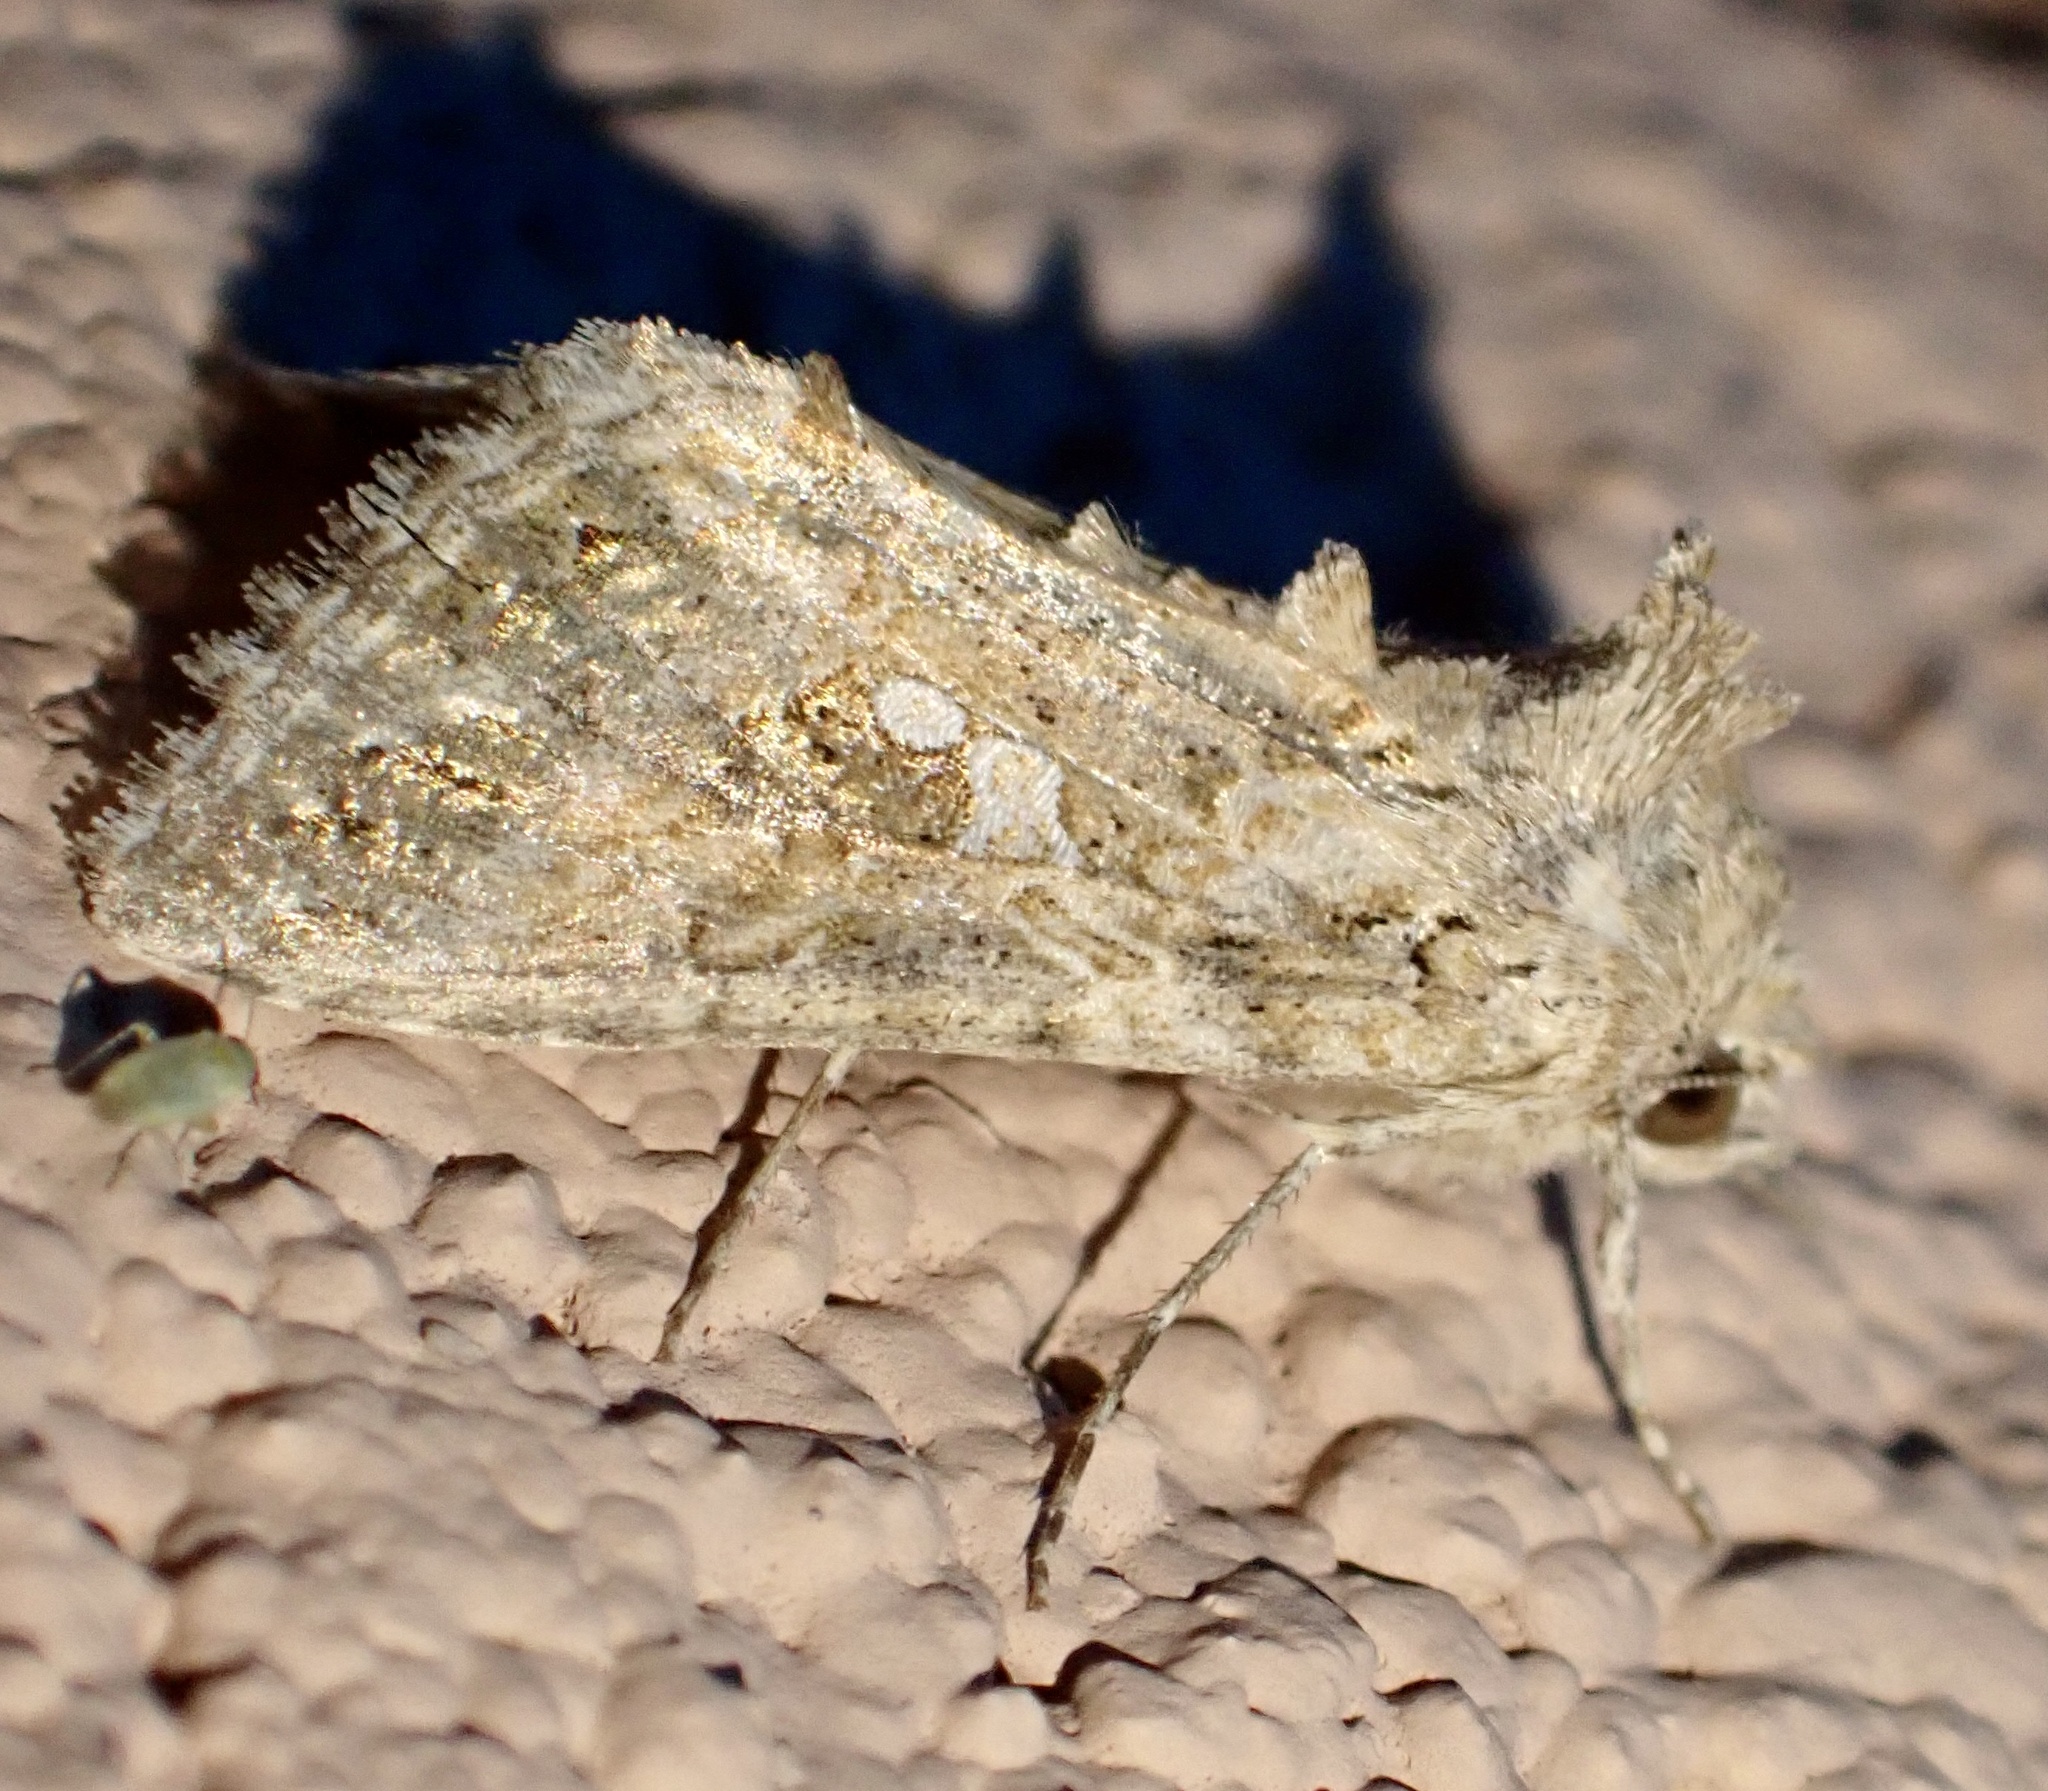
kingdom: Animalia
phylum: Arthropoda
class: Insecta
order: Lepidoptera
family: Noctuidae
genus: Trichoplusia
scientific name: Trichoplusia ni
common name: Ni moth
